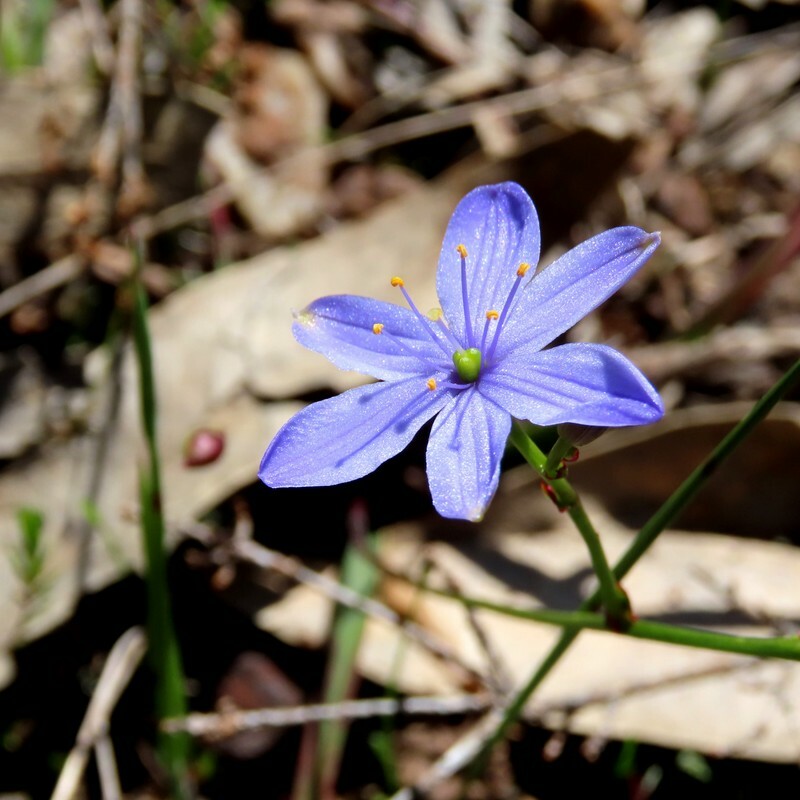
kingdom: Plantae
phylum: Tracheophyta
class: Liliopsida
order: Asparagales
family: Asphodelaceae
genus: Chamaescilla
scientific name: Chamaescilla corymbosa
